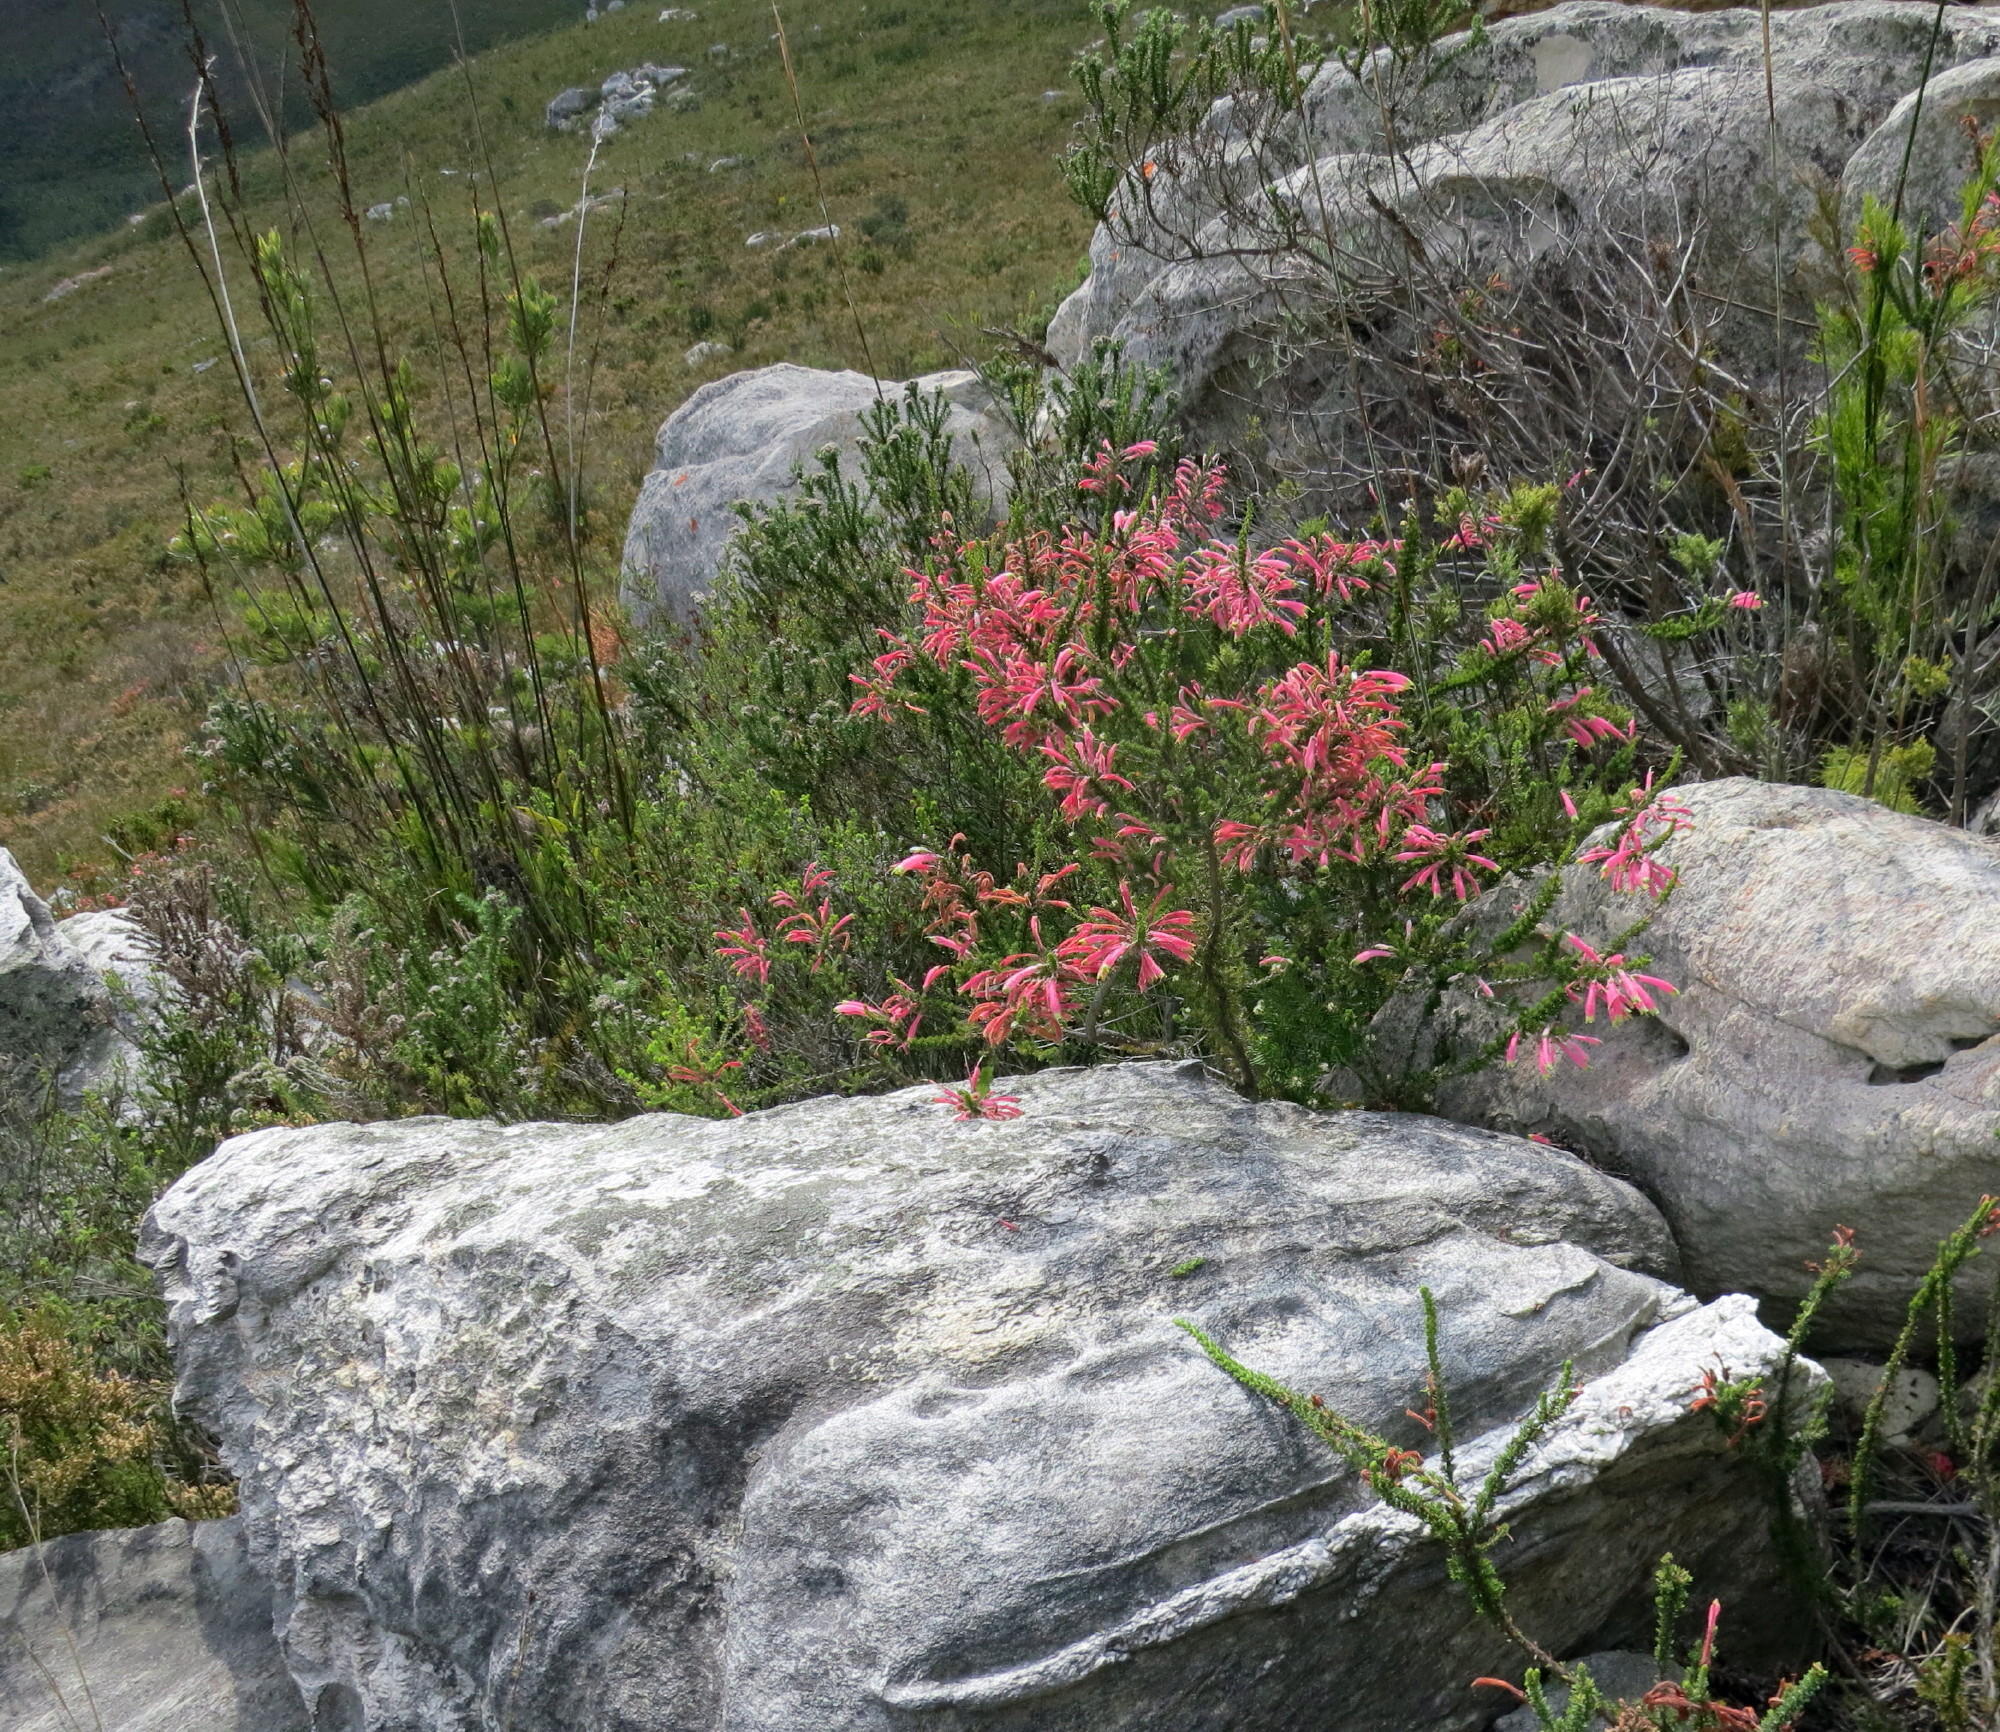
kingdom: Plantae
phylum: Tracheophyta
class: Magnoliopsida
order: Ericales
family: Ericaceae
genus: Erica
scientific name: Erica densifolia
